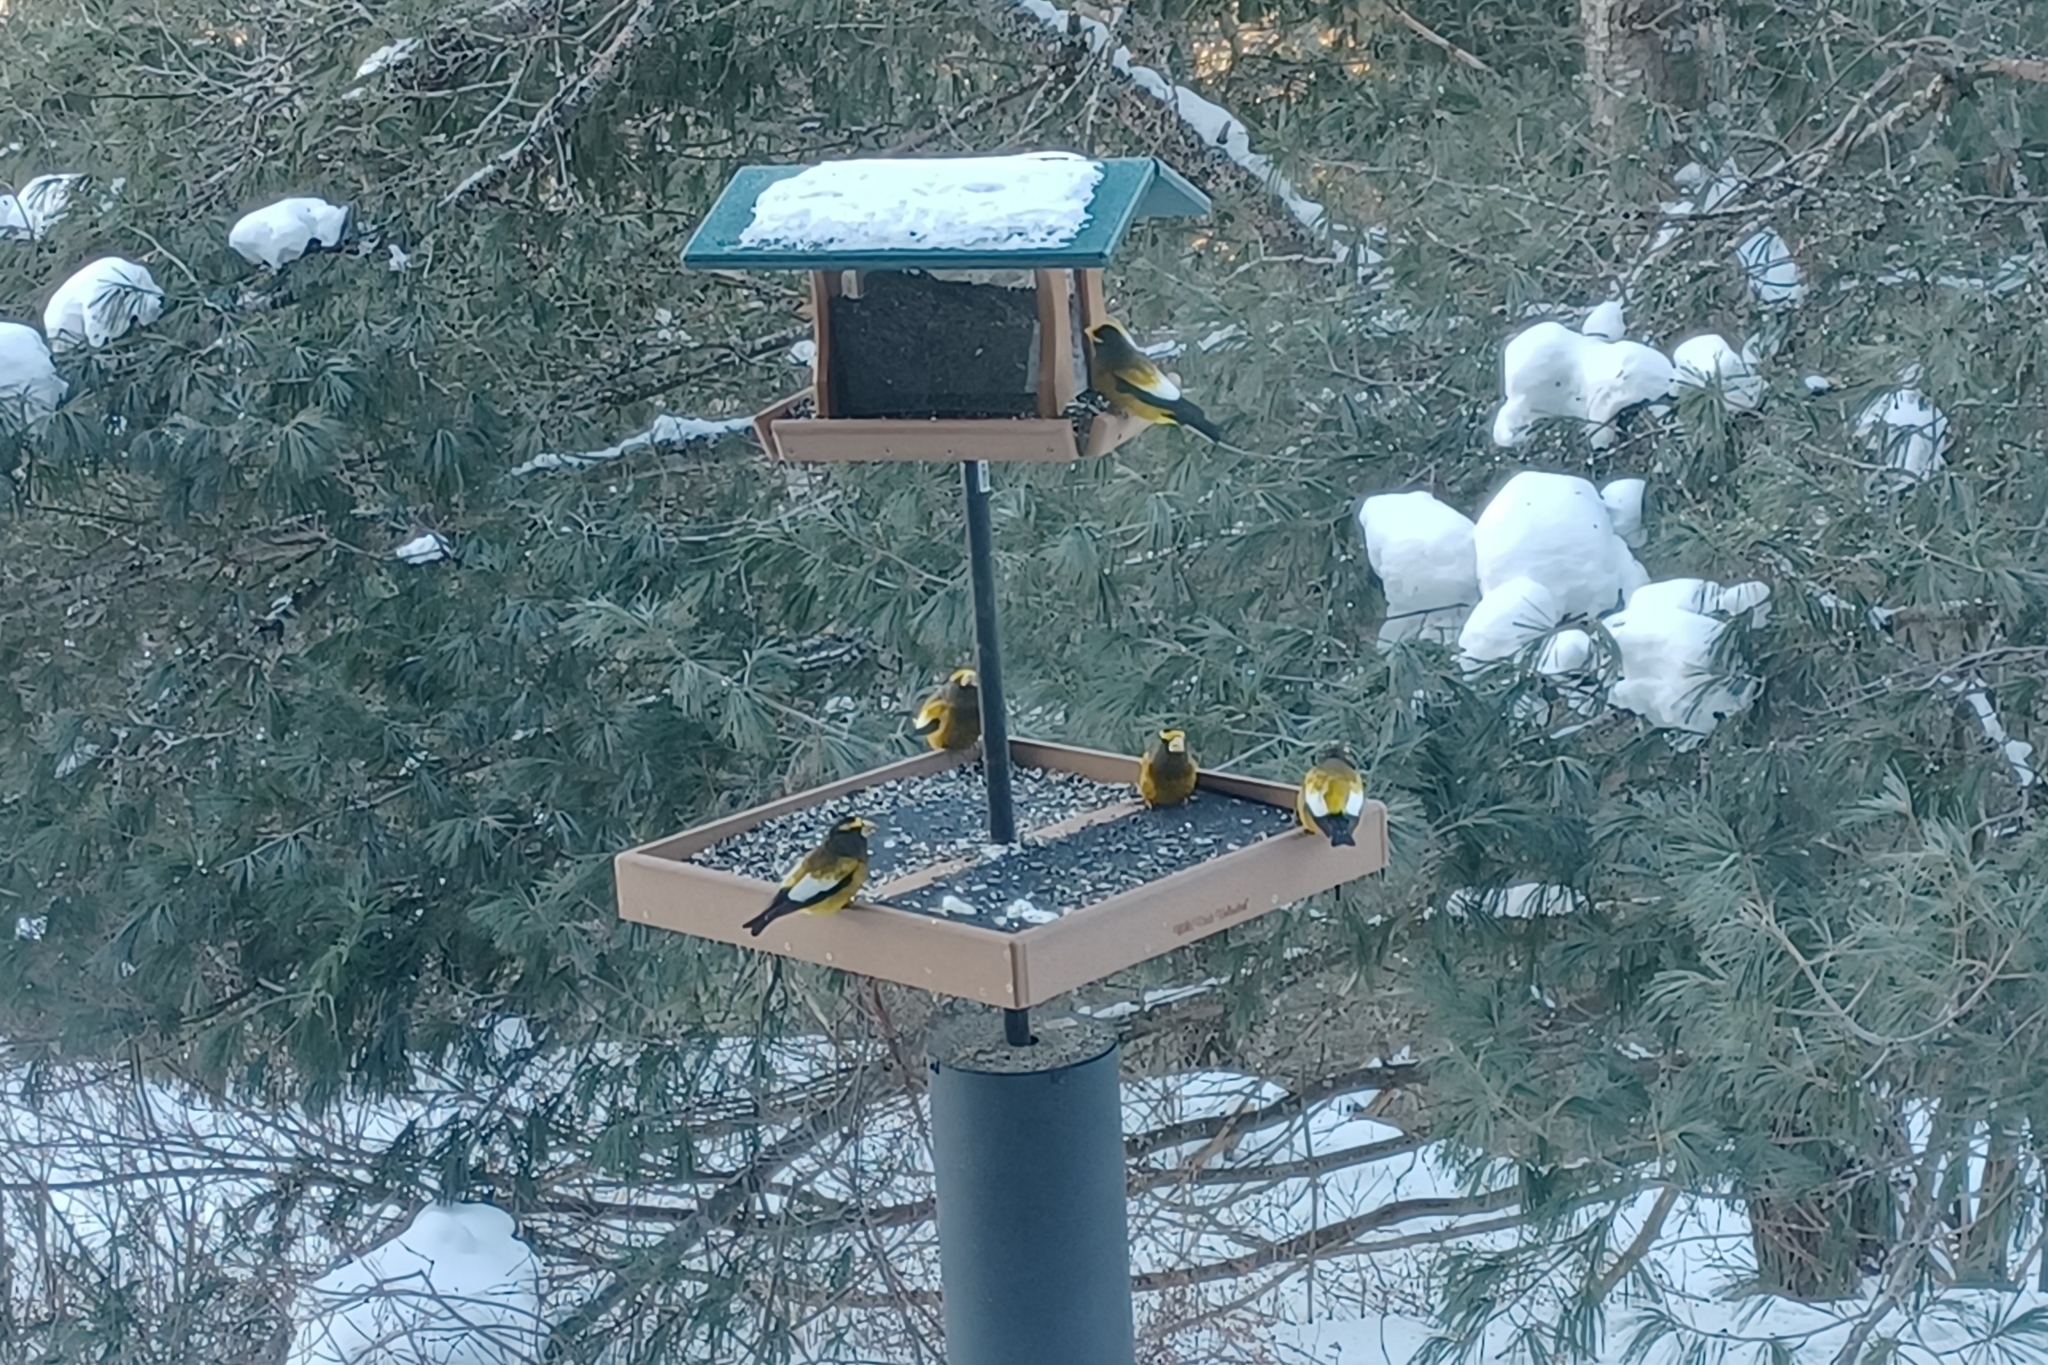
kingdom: Animalia
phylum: Chordata
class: Aves
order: Passeriformes
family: Fringillidae
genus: Hesperiphona
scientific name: Hesperiphona vespertina
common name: Evening grosbeak
